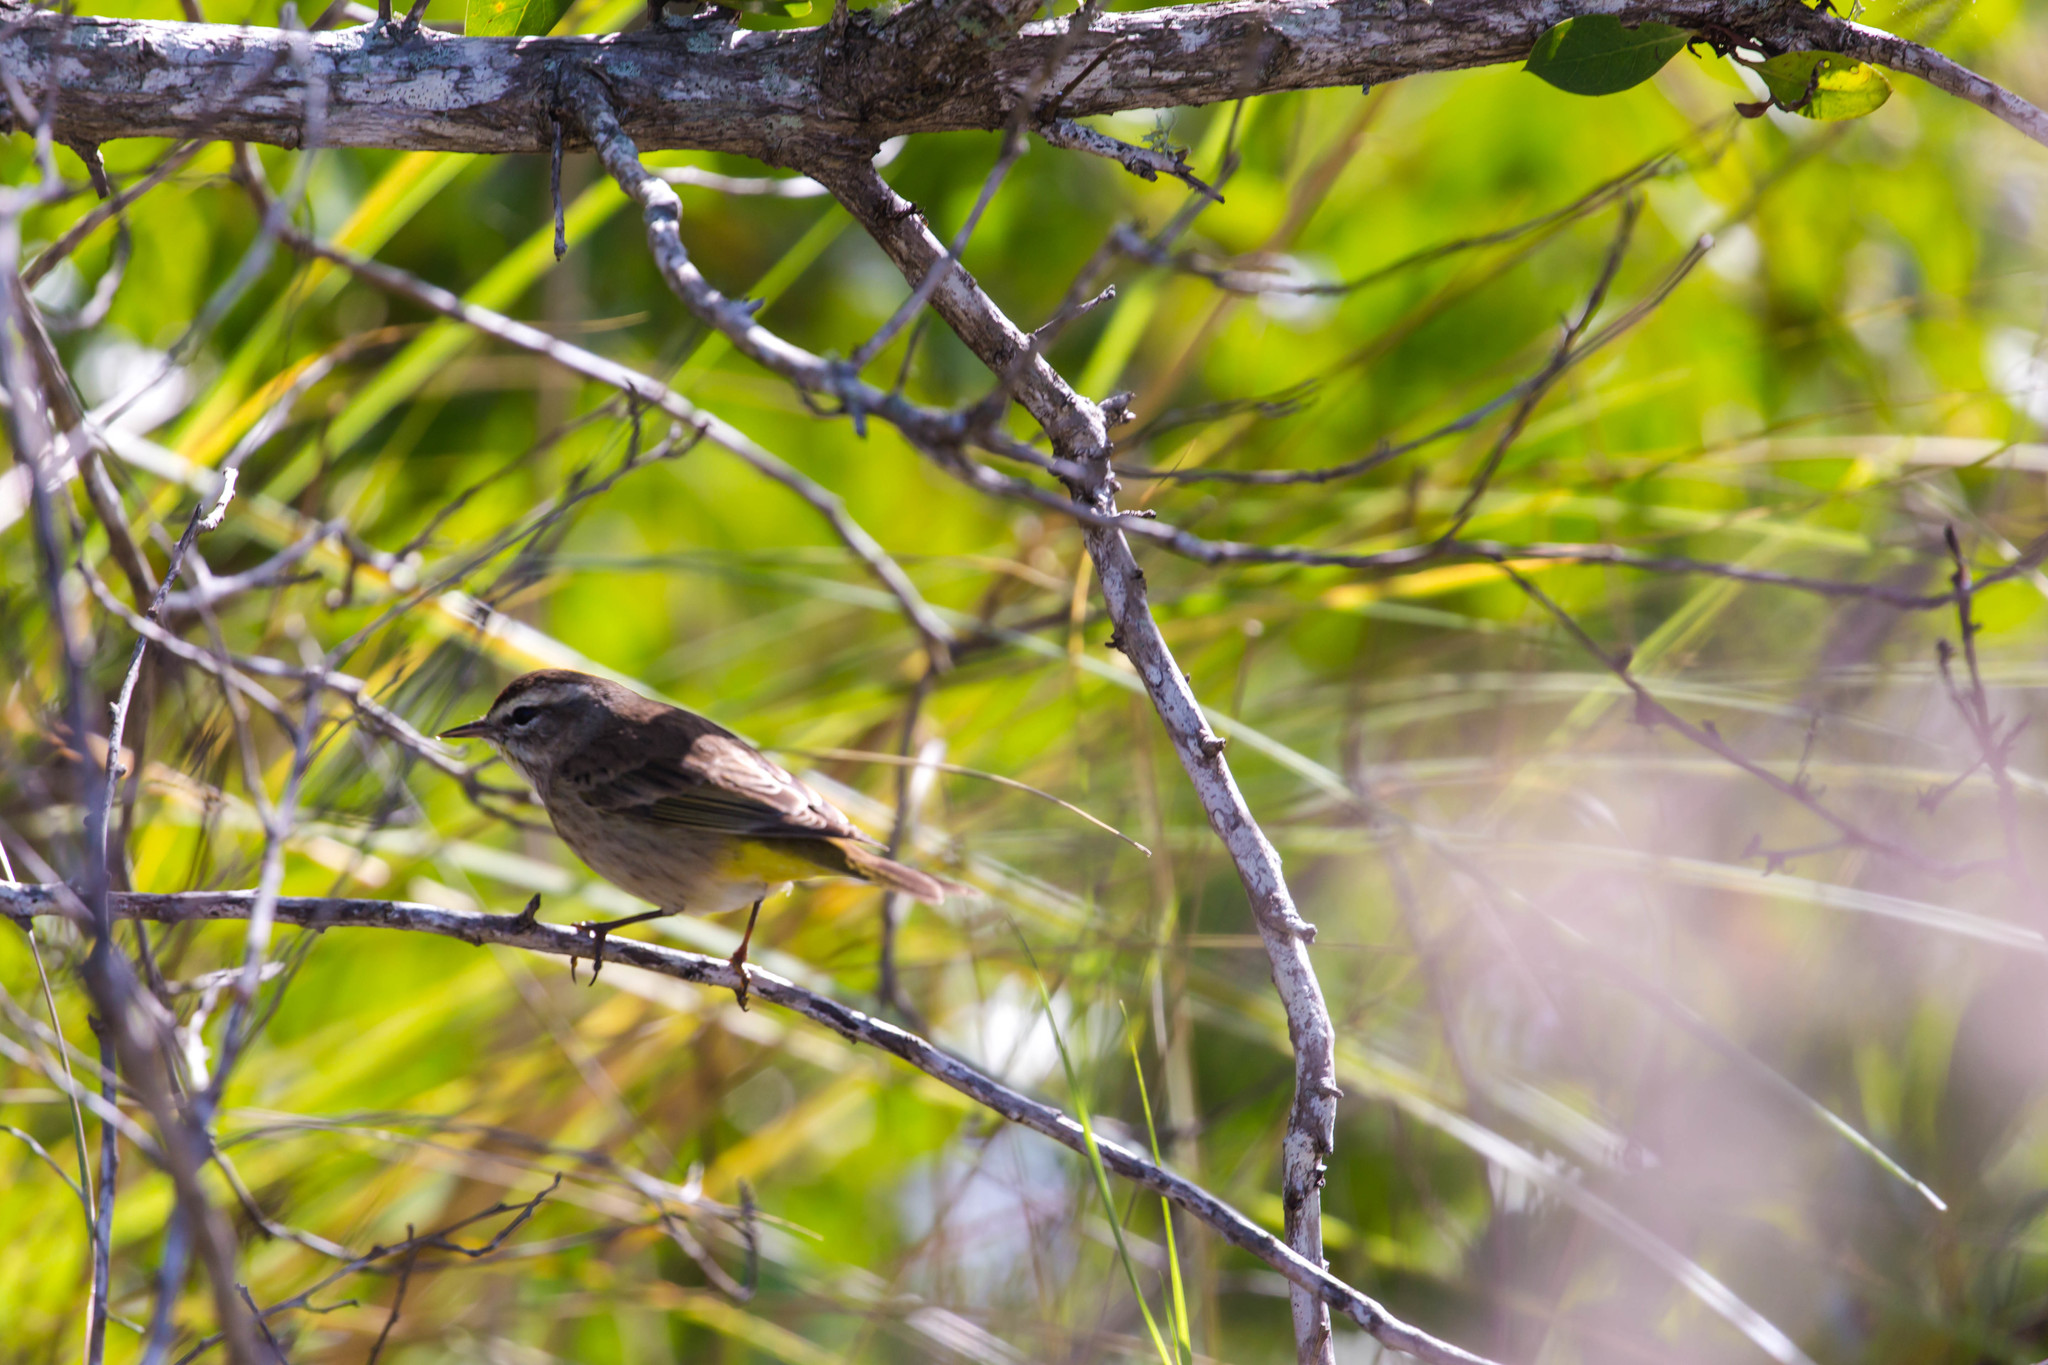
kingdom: Animalia
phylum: Chordata
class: Aves
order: Passeriformes
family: Parulidae
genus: Setophaga
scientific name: Setophaga palmarum
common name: Palm warbler
